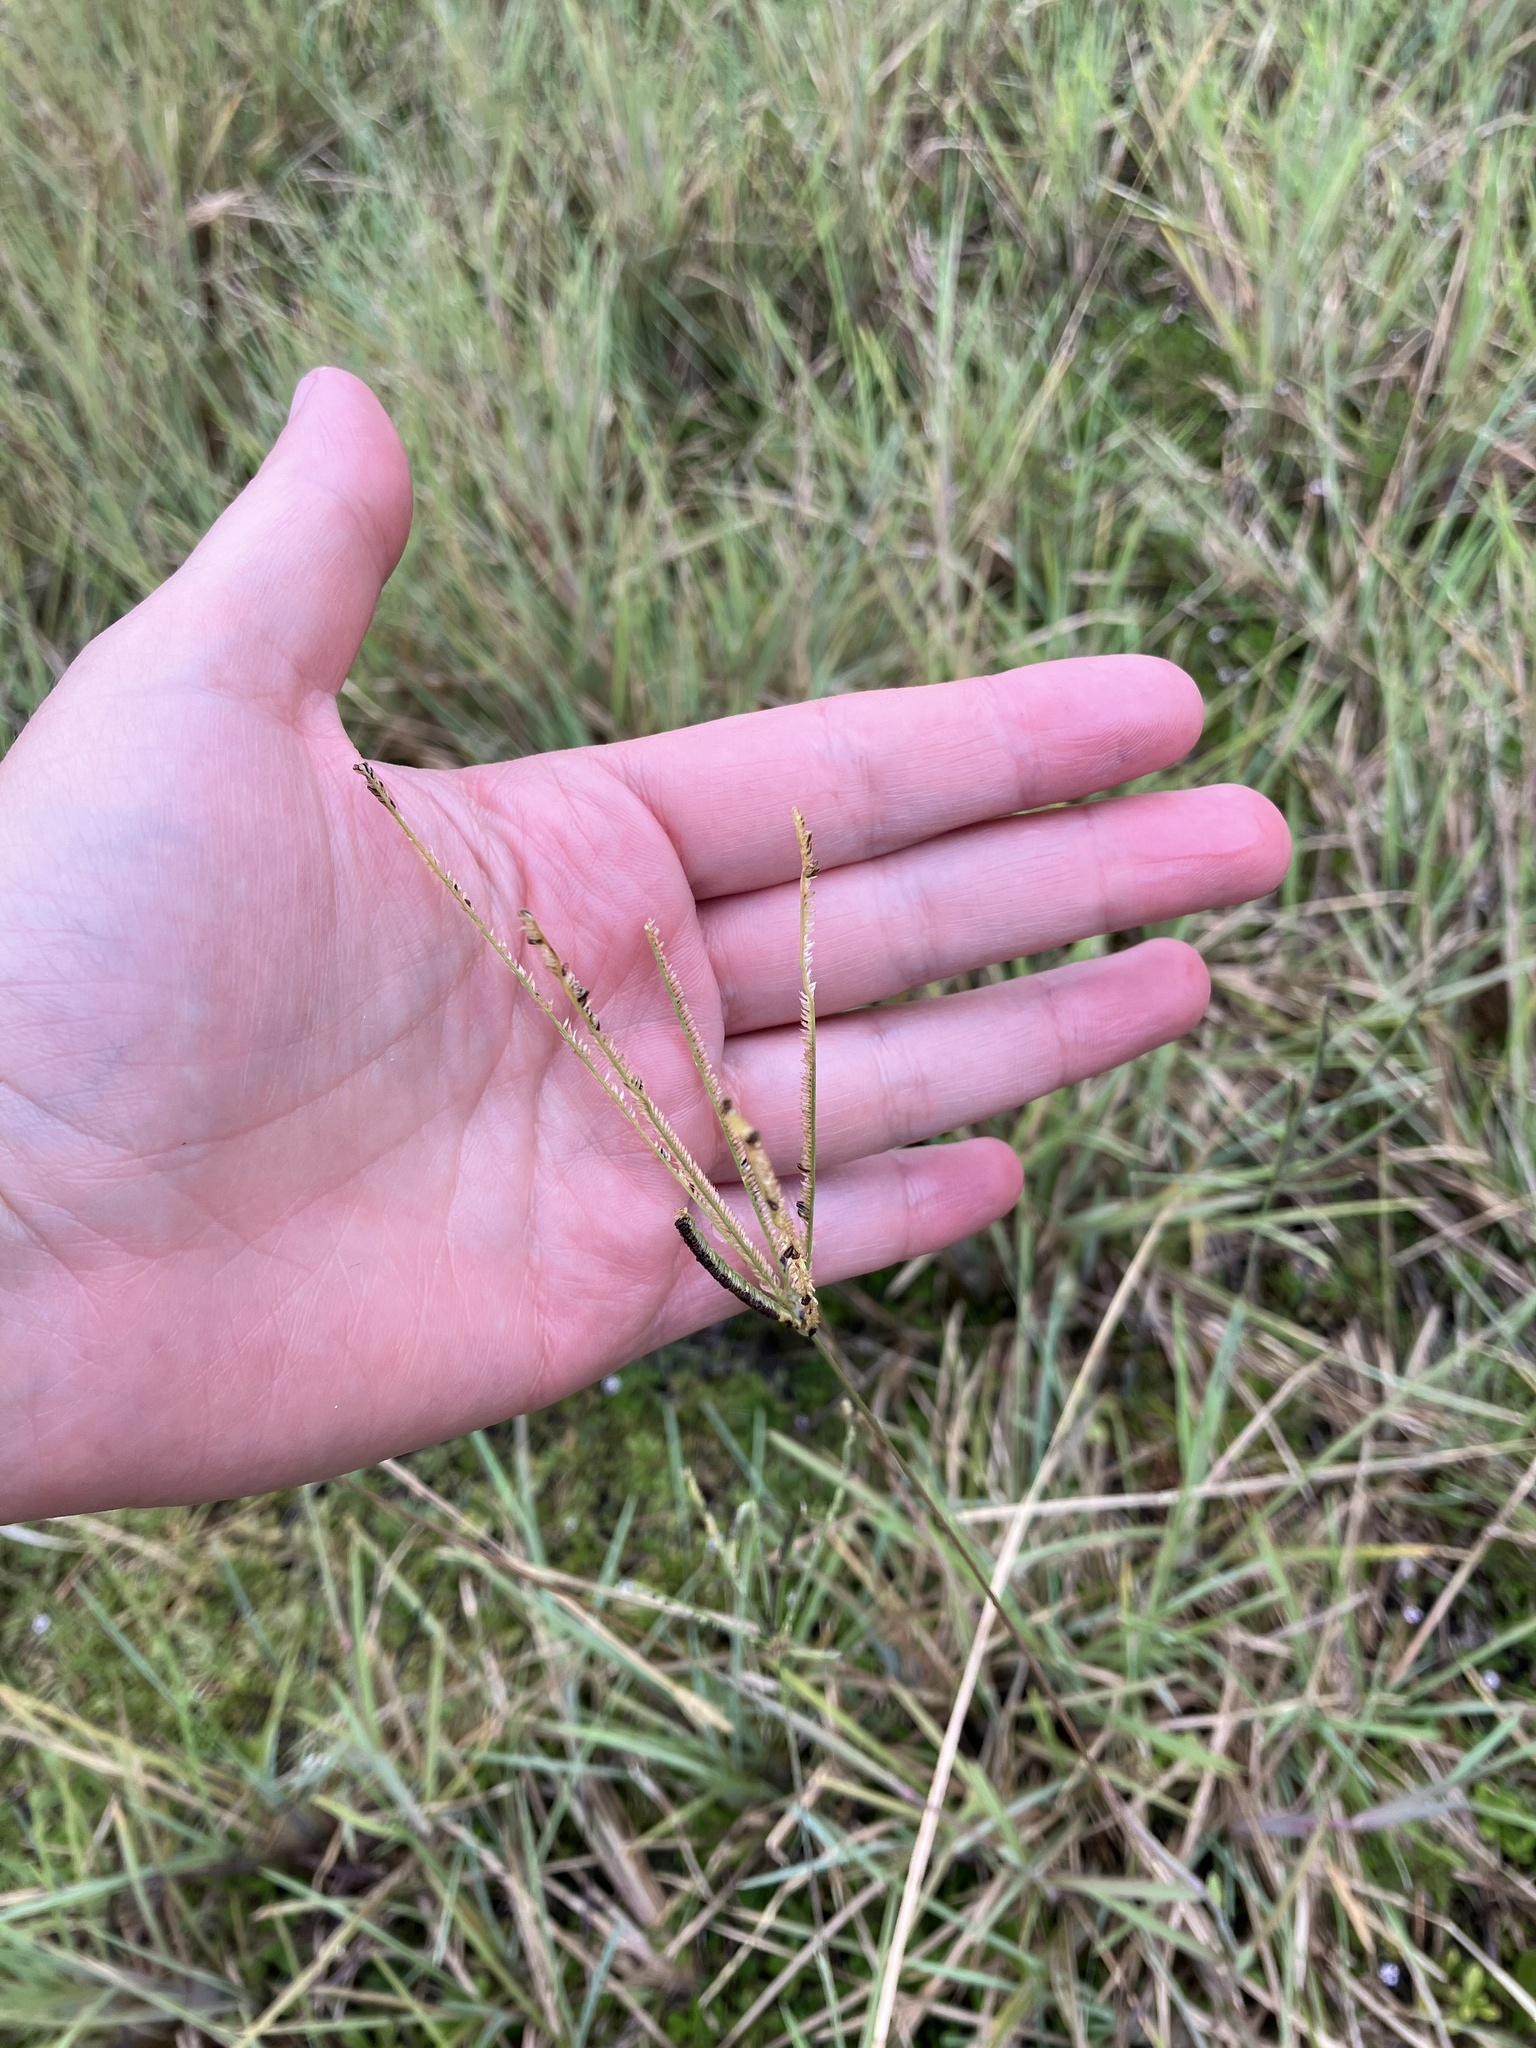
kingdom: Plantae
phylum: Tracheophyta
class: Liliopsida
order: Poales
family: Poaceae
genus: Eustachys
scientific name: Eustachys petraea
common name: Pinewoods fingergrass
